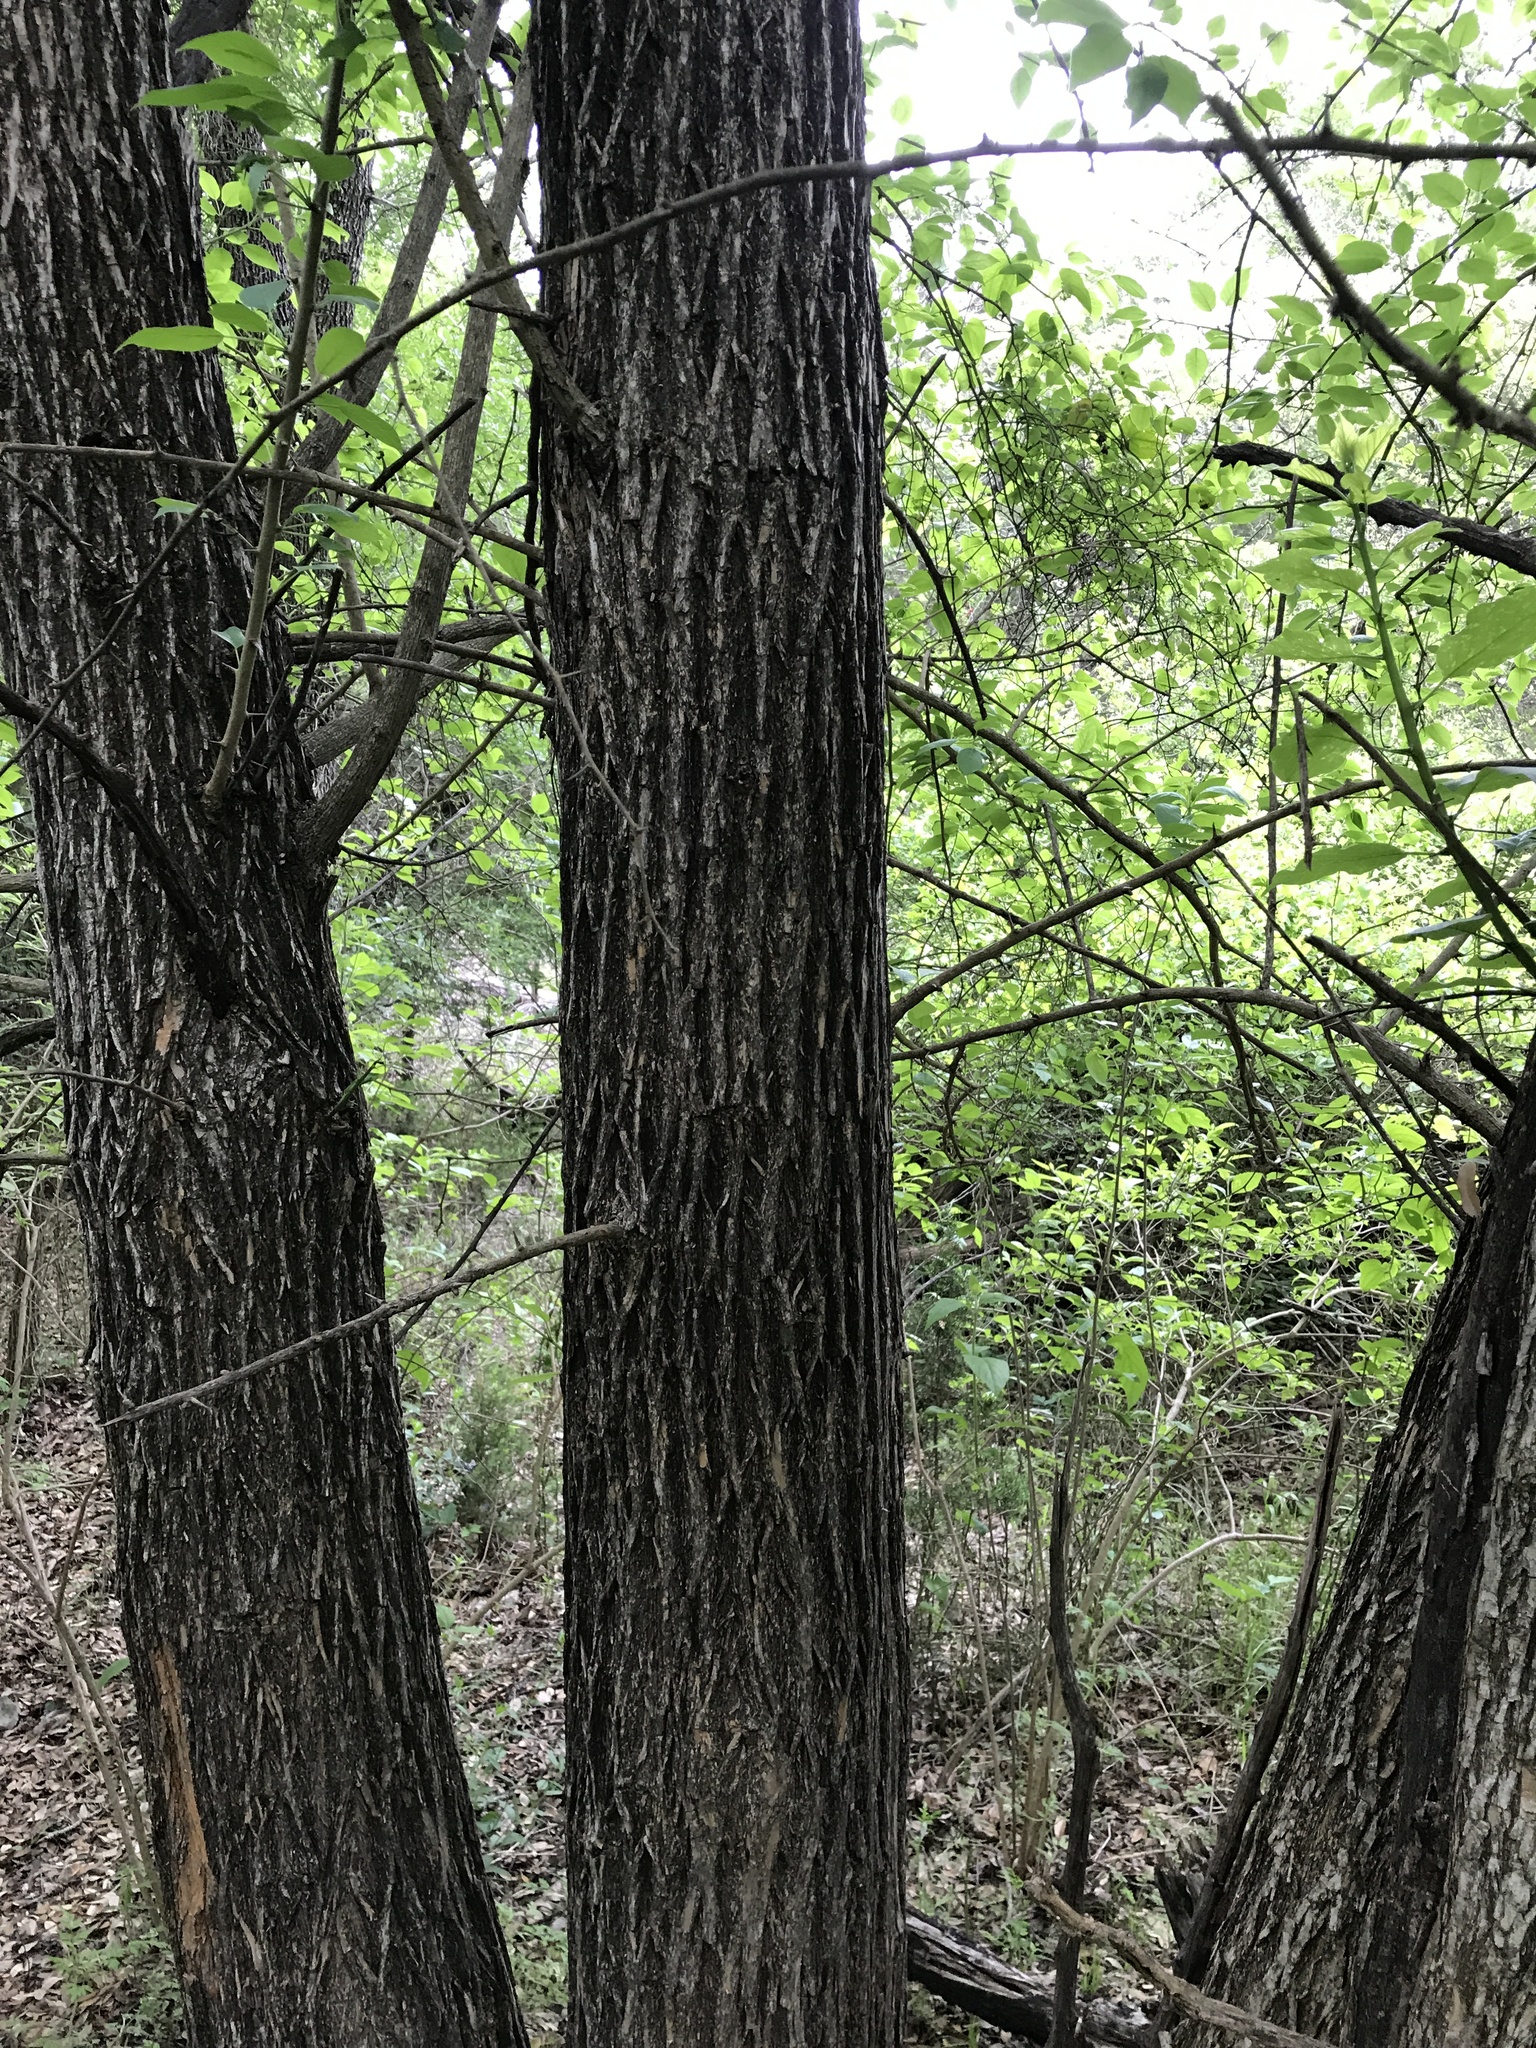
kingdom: Plantae
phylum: Tracheophyta
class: Magnoliopsida
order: Rosales
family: Moraceae
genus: Maclura
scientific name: Maclura pomifera
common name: Osage-orange
